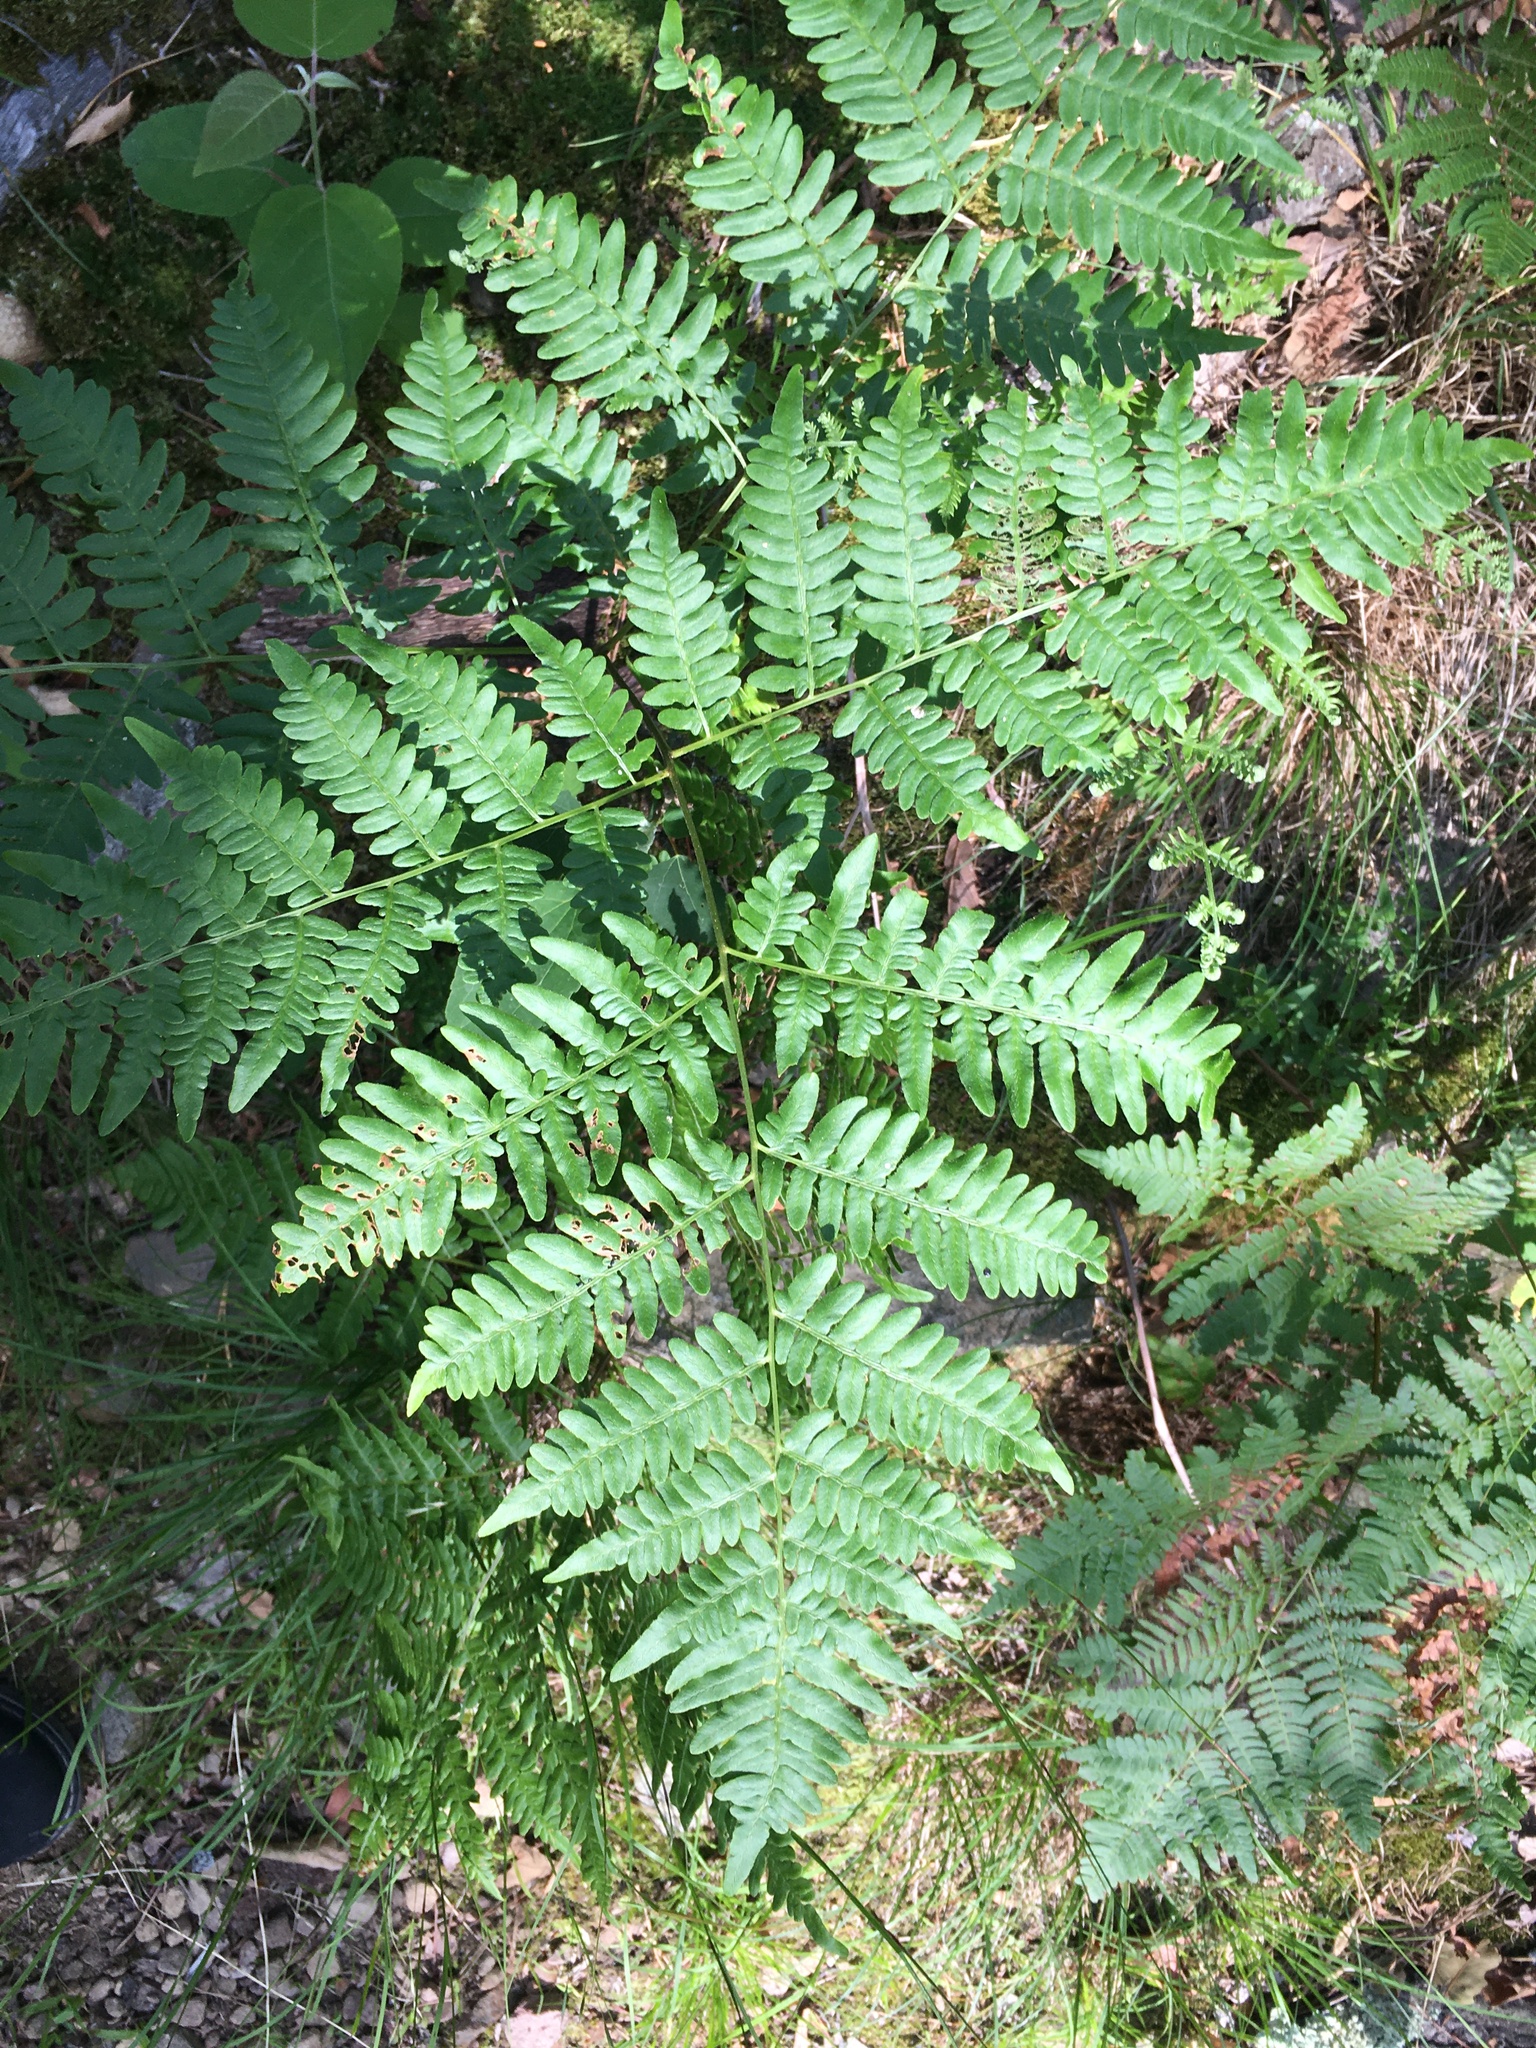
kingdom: Plantae
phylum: Tracheophyta
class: Polypodiopsida
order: Polypodiales
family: Dennstaedtiaceae
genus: Pteridium
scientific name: Pteridium aquilinum
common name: Bracken
